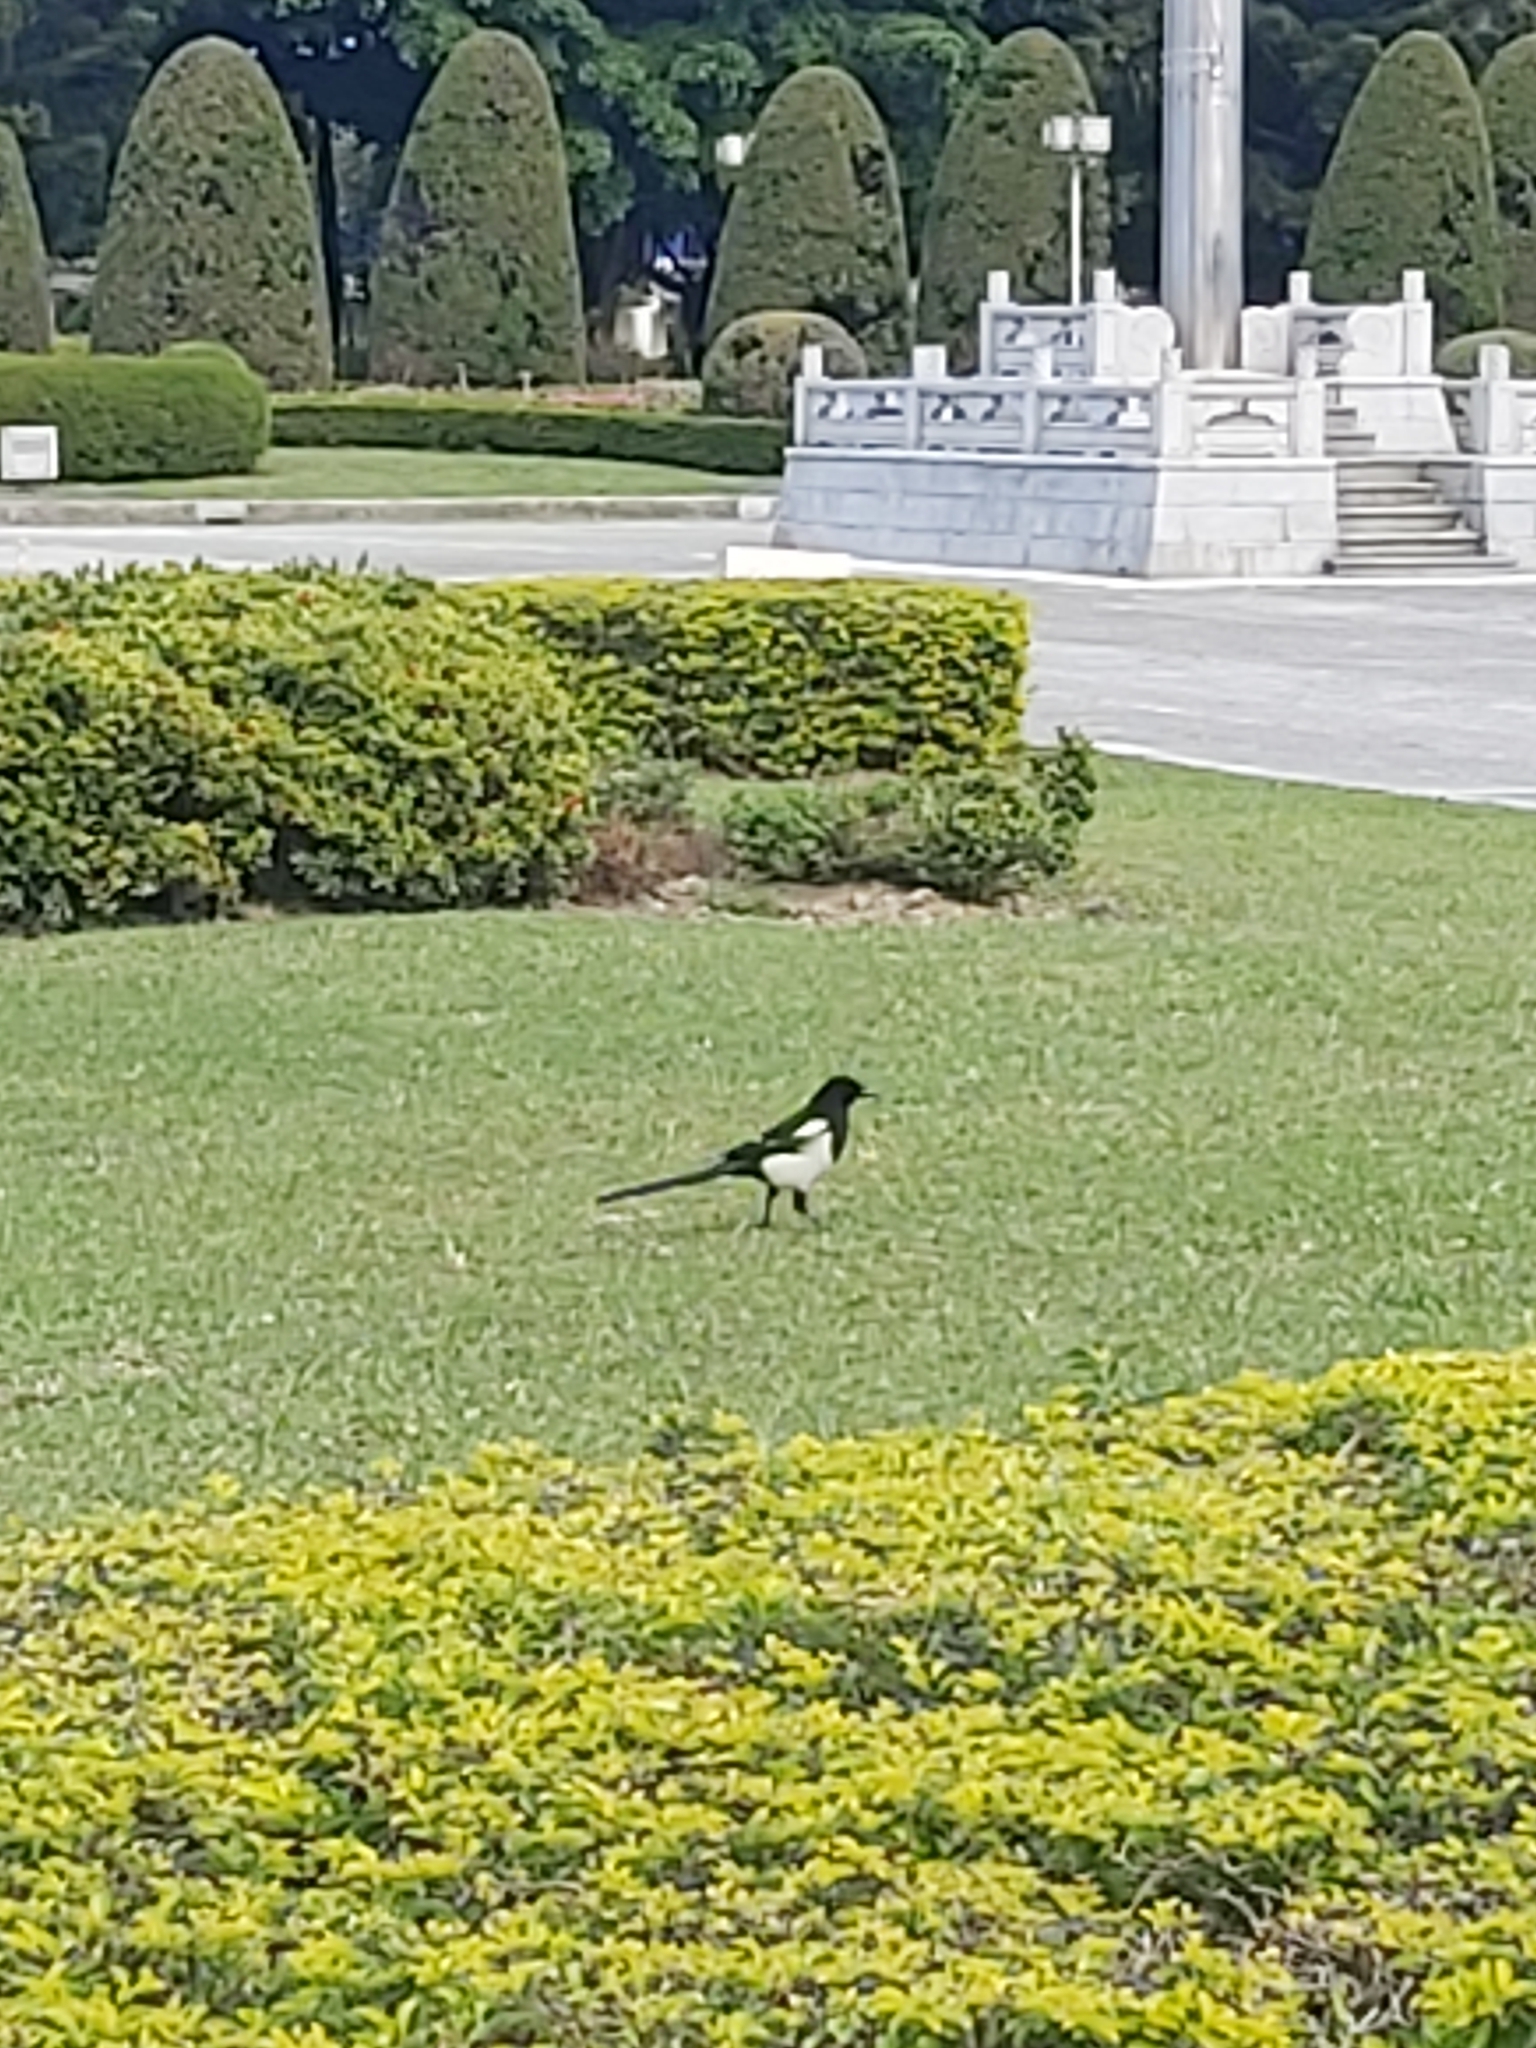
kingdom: Animalia
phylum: Chordata
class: Aves
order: Passeriformes
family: Corvidae
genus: Pica
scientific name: Pica serica
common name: Oriental magpie
